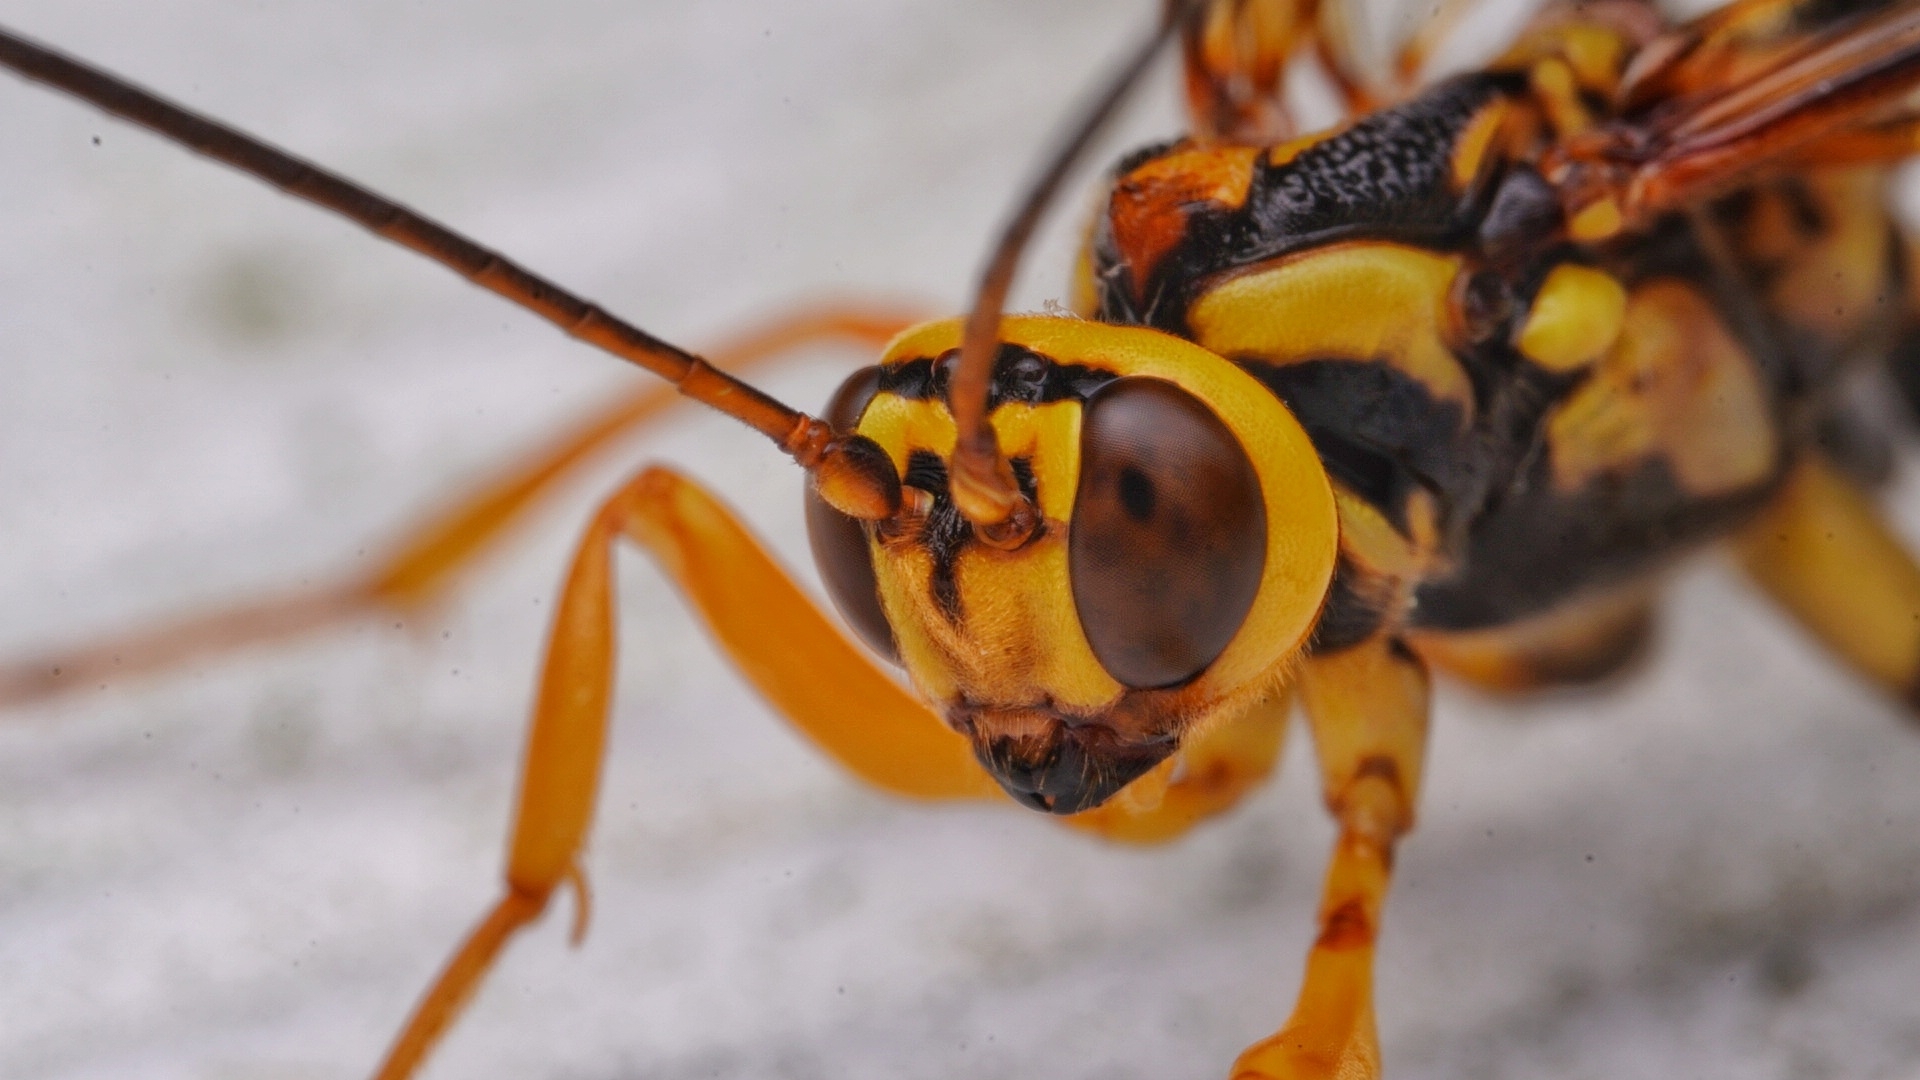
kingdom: Animalia
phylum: Arthropoda
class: Insecta
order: Hymenoptera
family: Ichneumonidae
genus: Megarhyssa
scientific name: Megarhyssa atrata
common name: Black giant ichneumonid wasp
